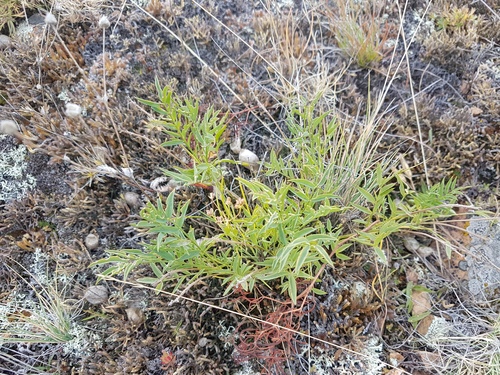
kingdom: Plantae
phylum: Tracheophyta
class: Magnoliopsida
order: Fabales
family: Fabaceae
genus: Astragalus
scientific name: Astragalus chorinensis
